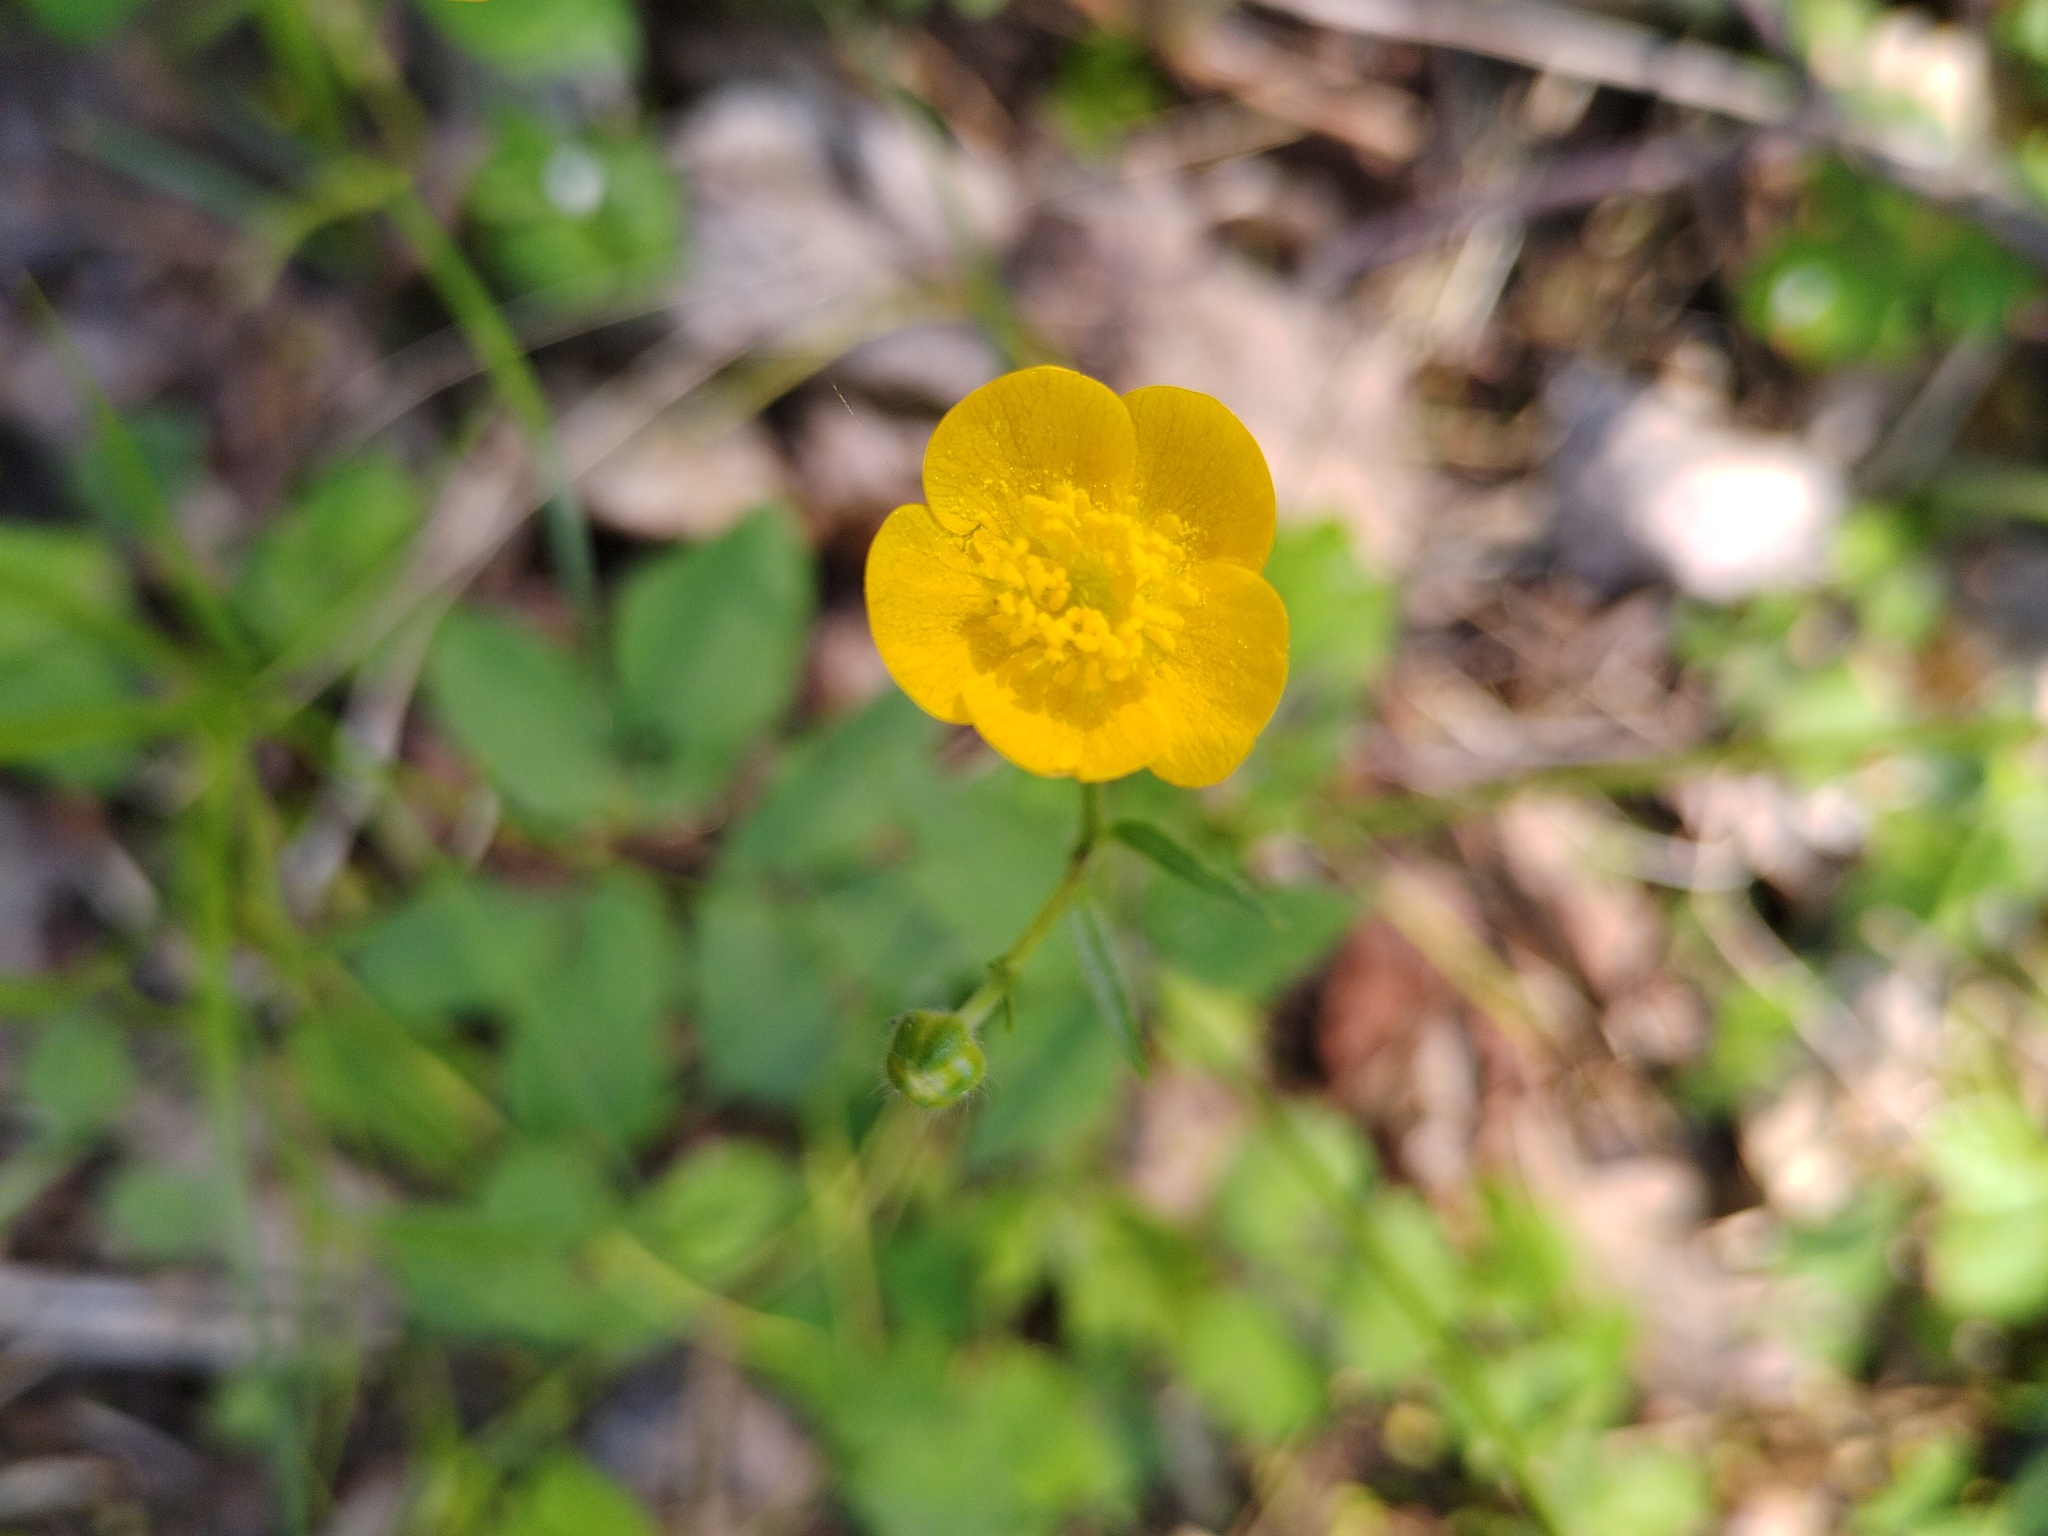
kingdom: Plantae
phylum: Tracheophyta
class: Magnoliopsida
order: Ranunculales
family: Ranunculaceae
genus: Ranunculus
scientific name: Ranunculus lanuginosus
